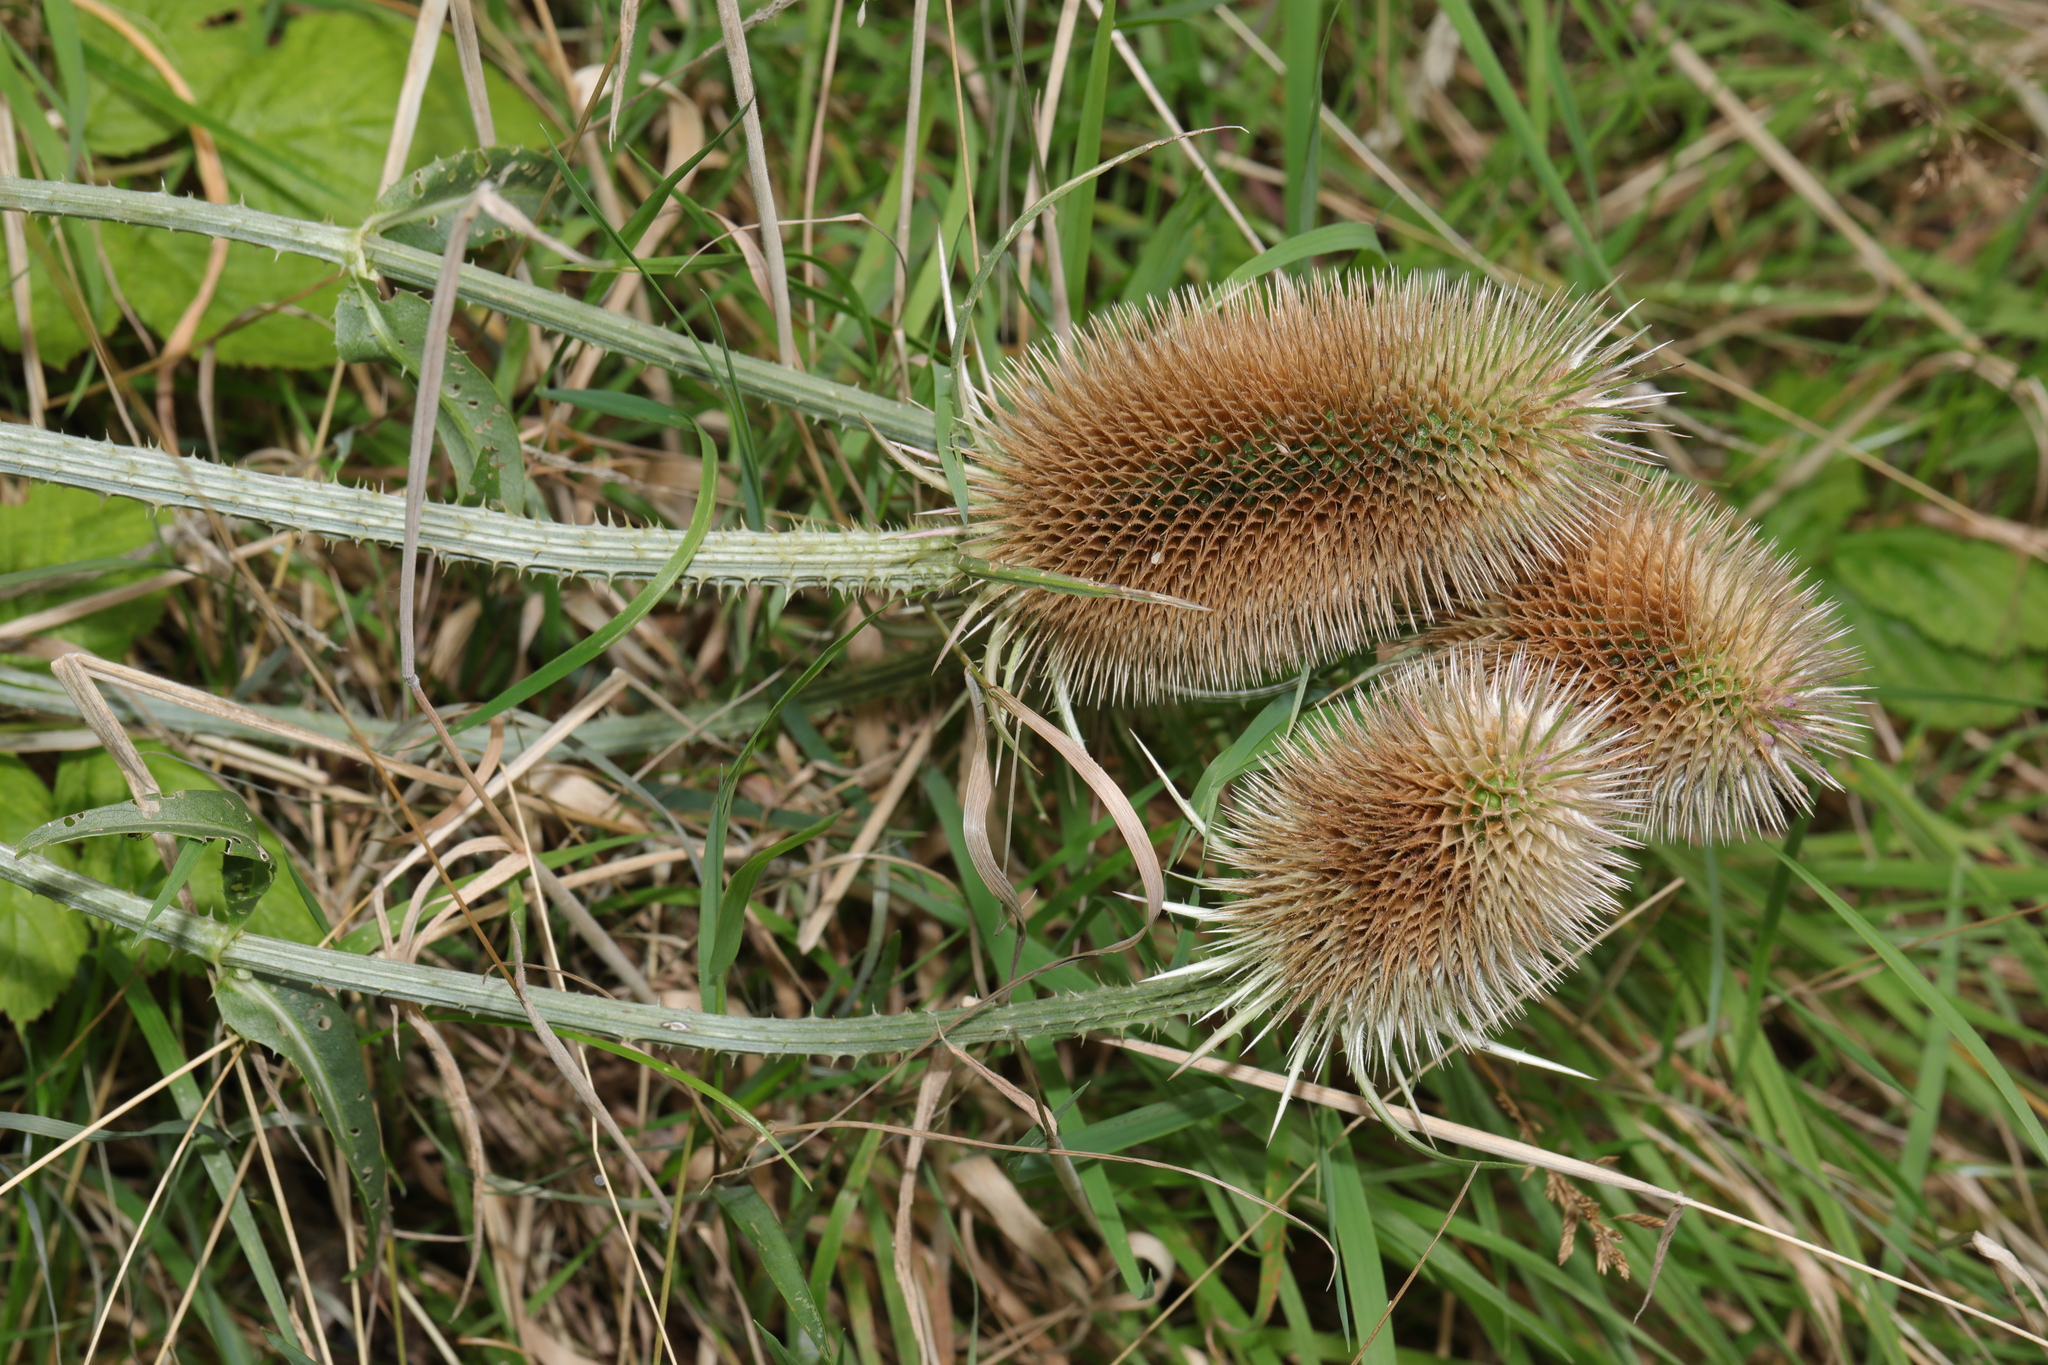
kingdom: Plantae
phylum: Tracheophyta
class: Magnoliopsida
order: Dipsacales
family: Caprifoliaceae
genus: Dipsacus
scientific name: Dipsacus fullonum
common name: Teasel
